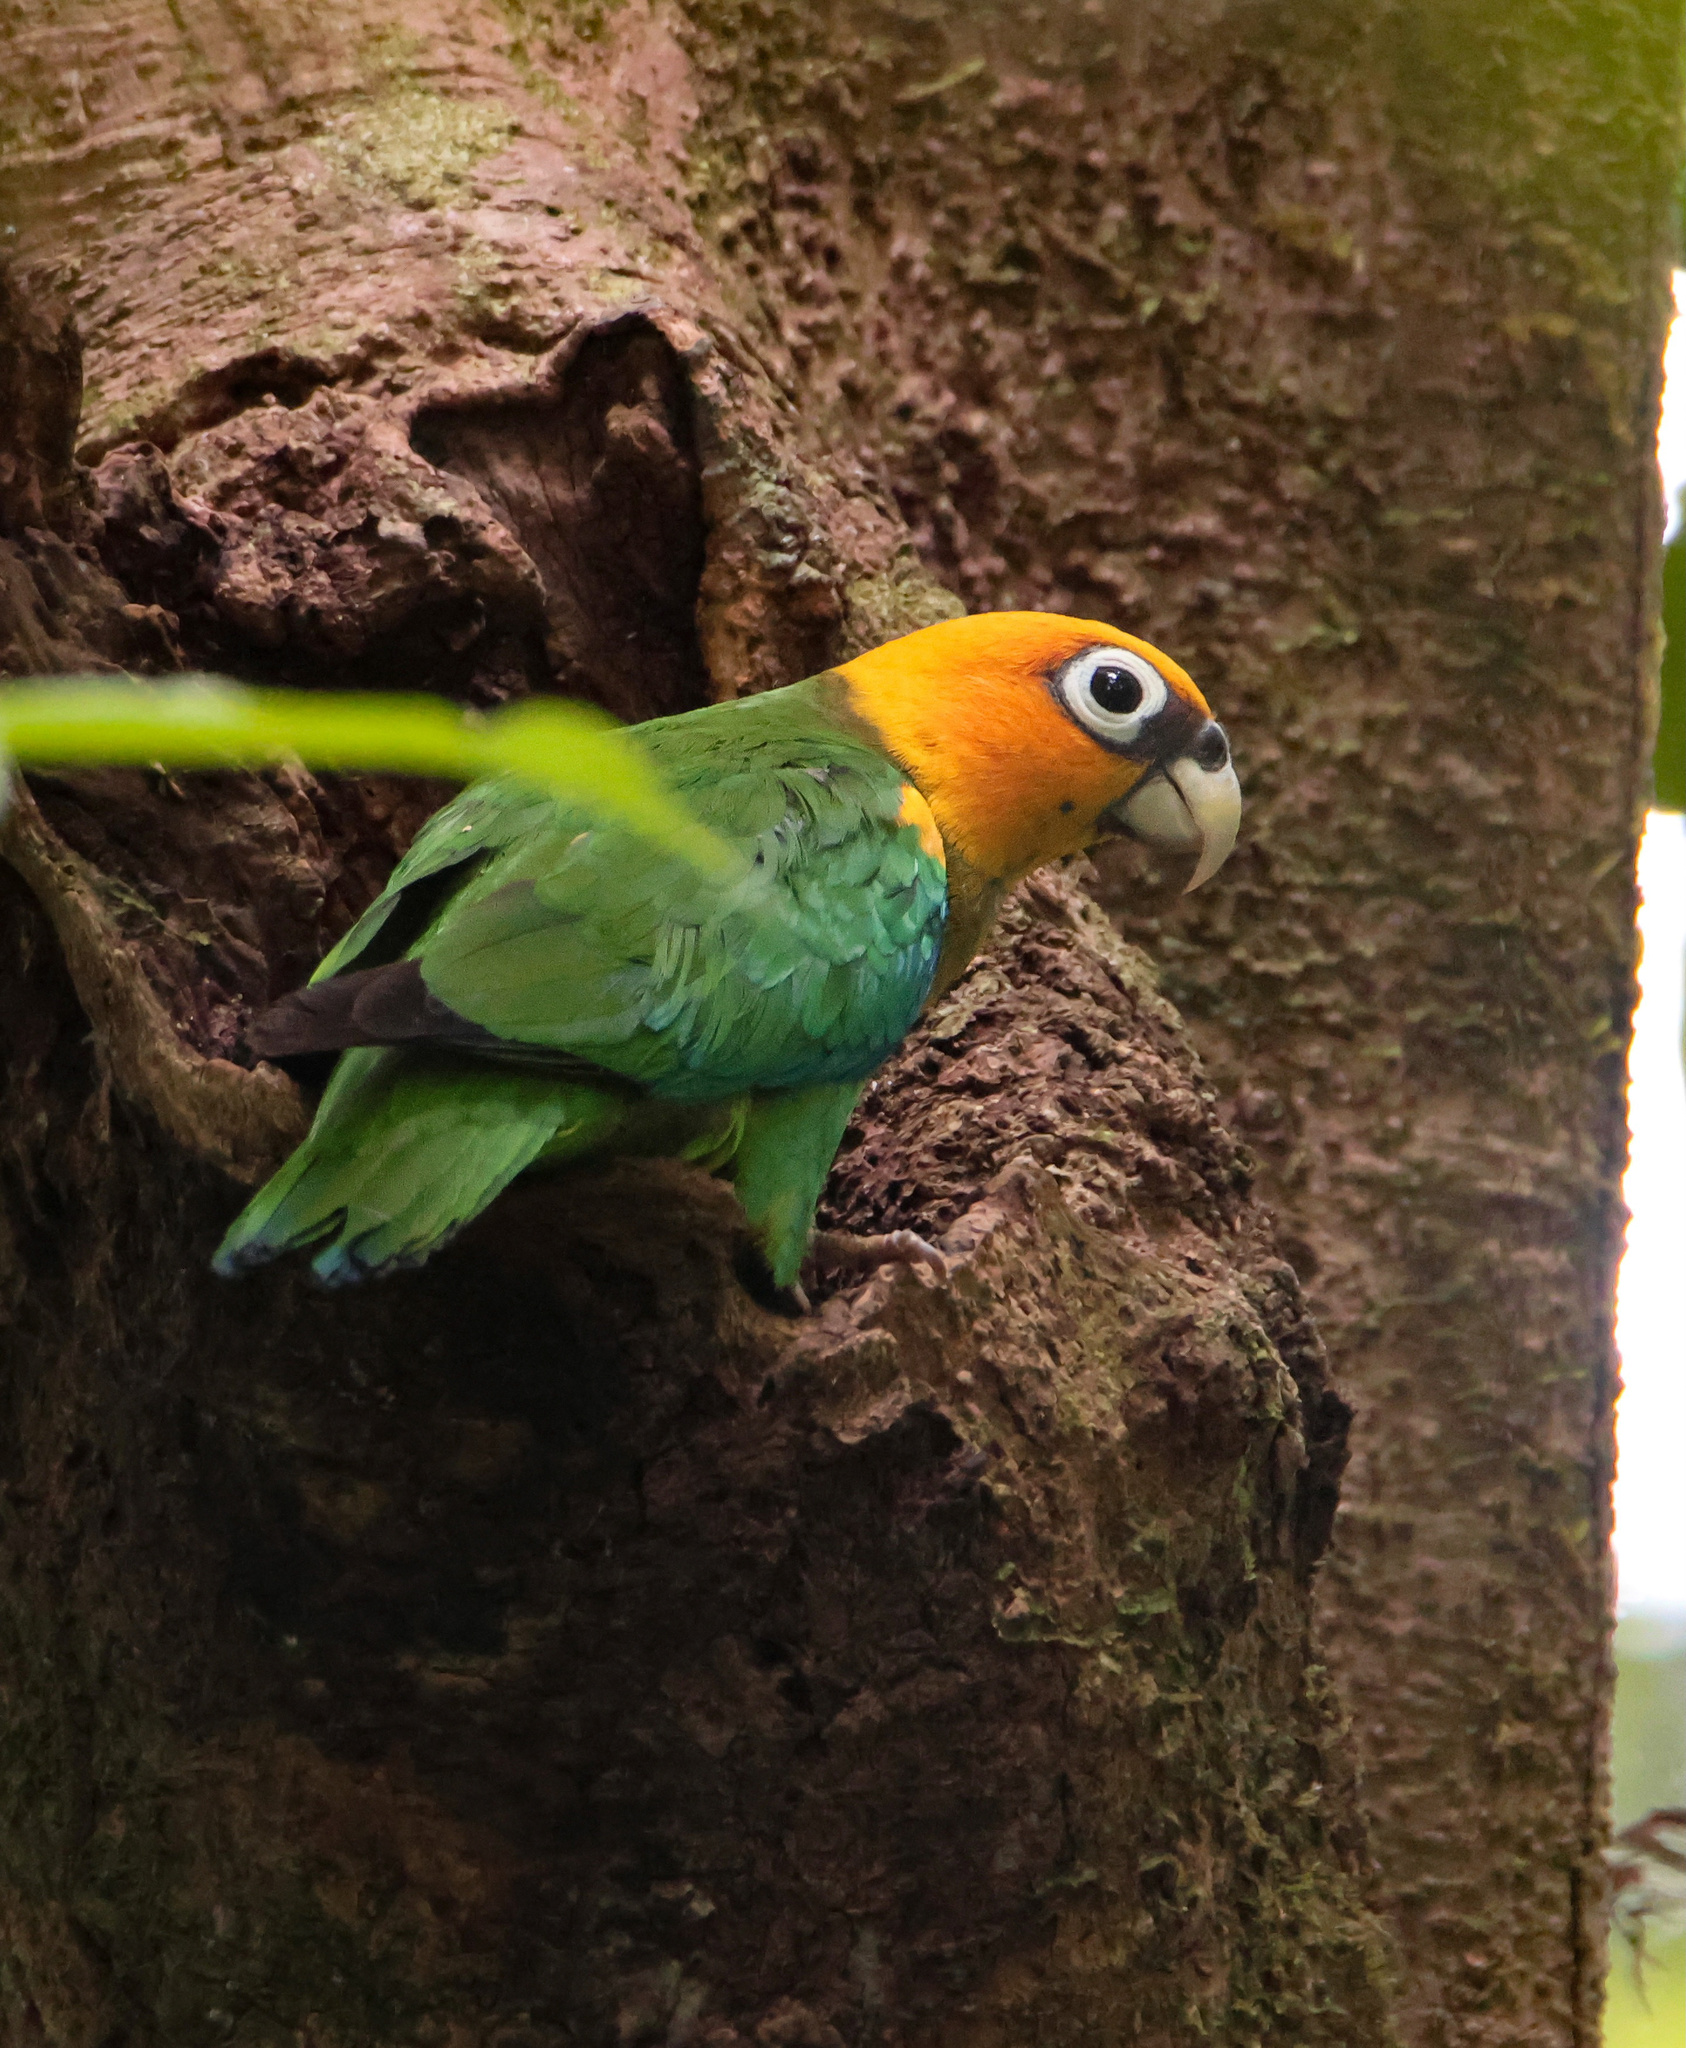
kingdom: Animalia
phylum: Chordata
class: Aves
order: Psittaciformes
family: Psittacidae
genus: Pionopsitta
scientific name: Pionopsitta pyrilia
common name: Saffron-headed parrot
